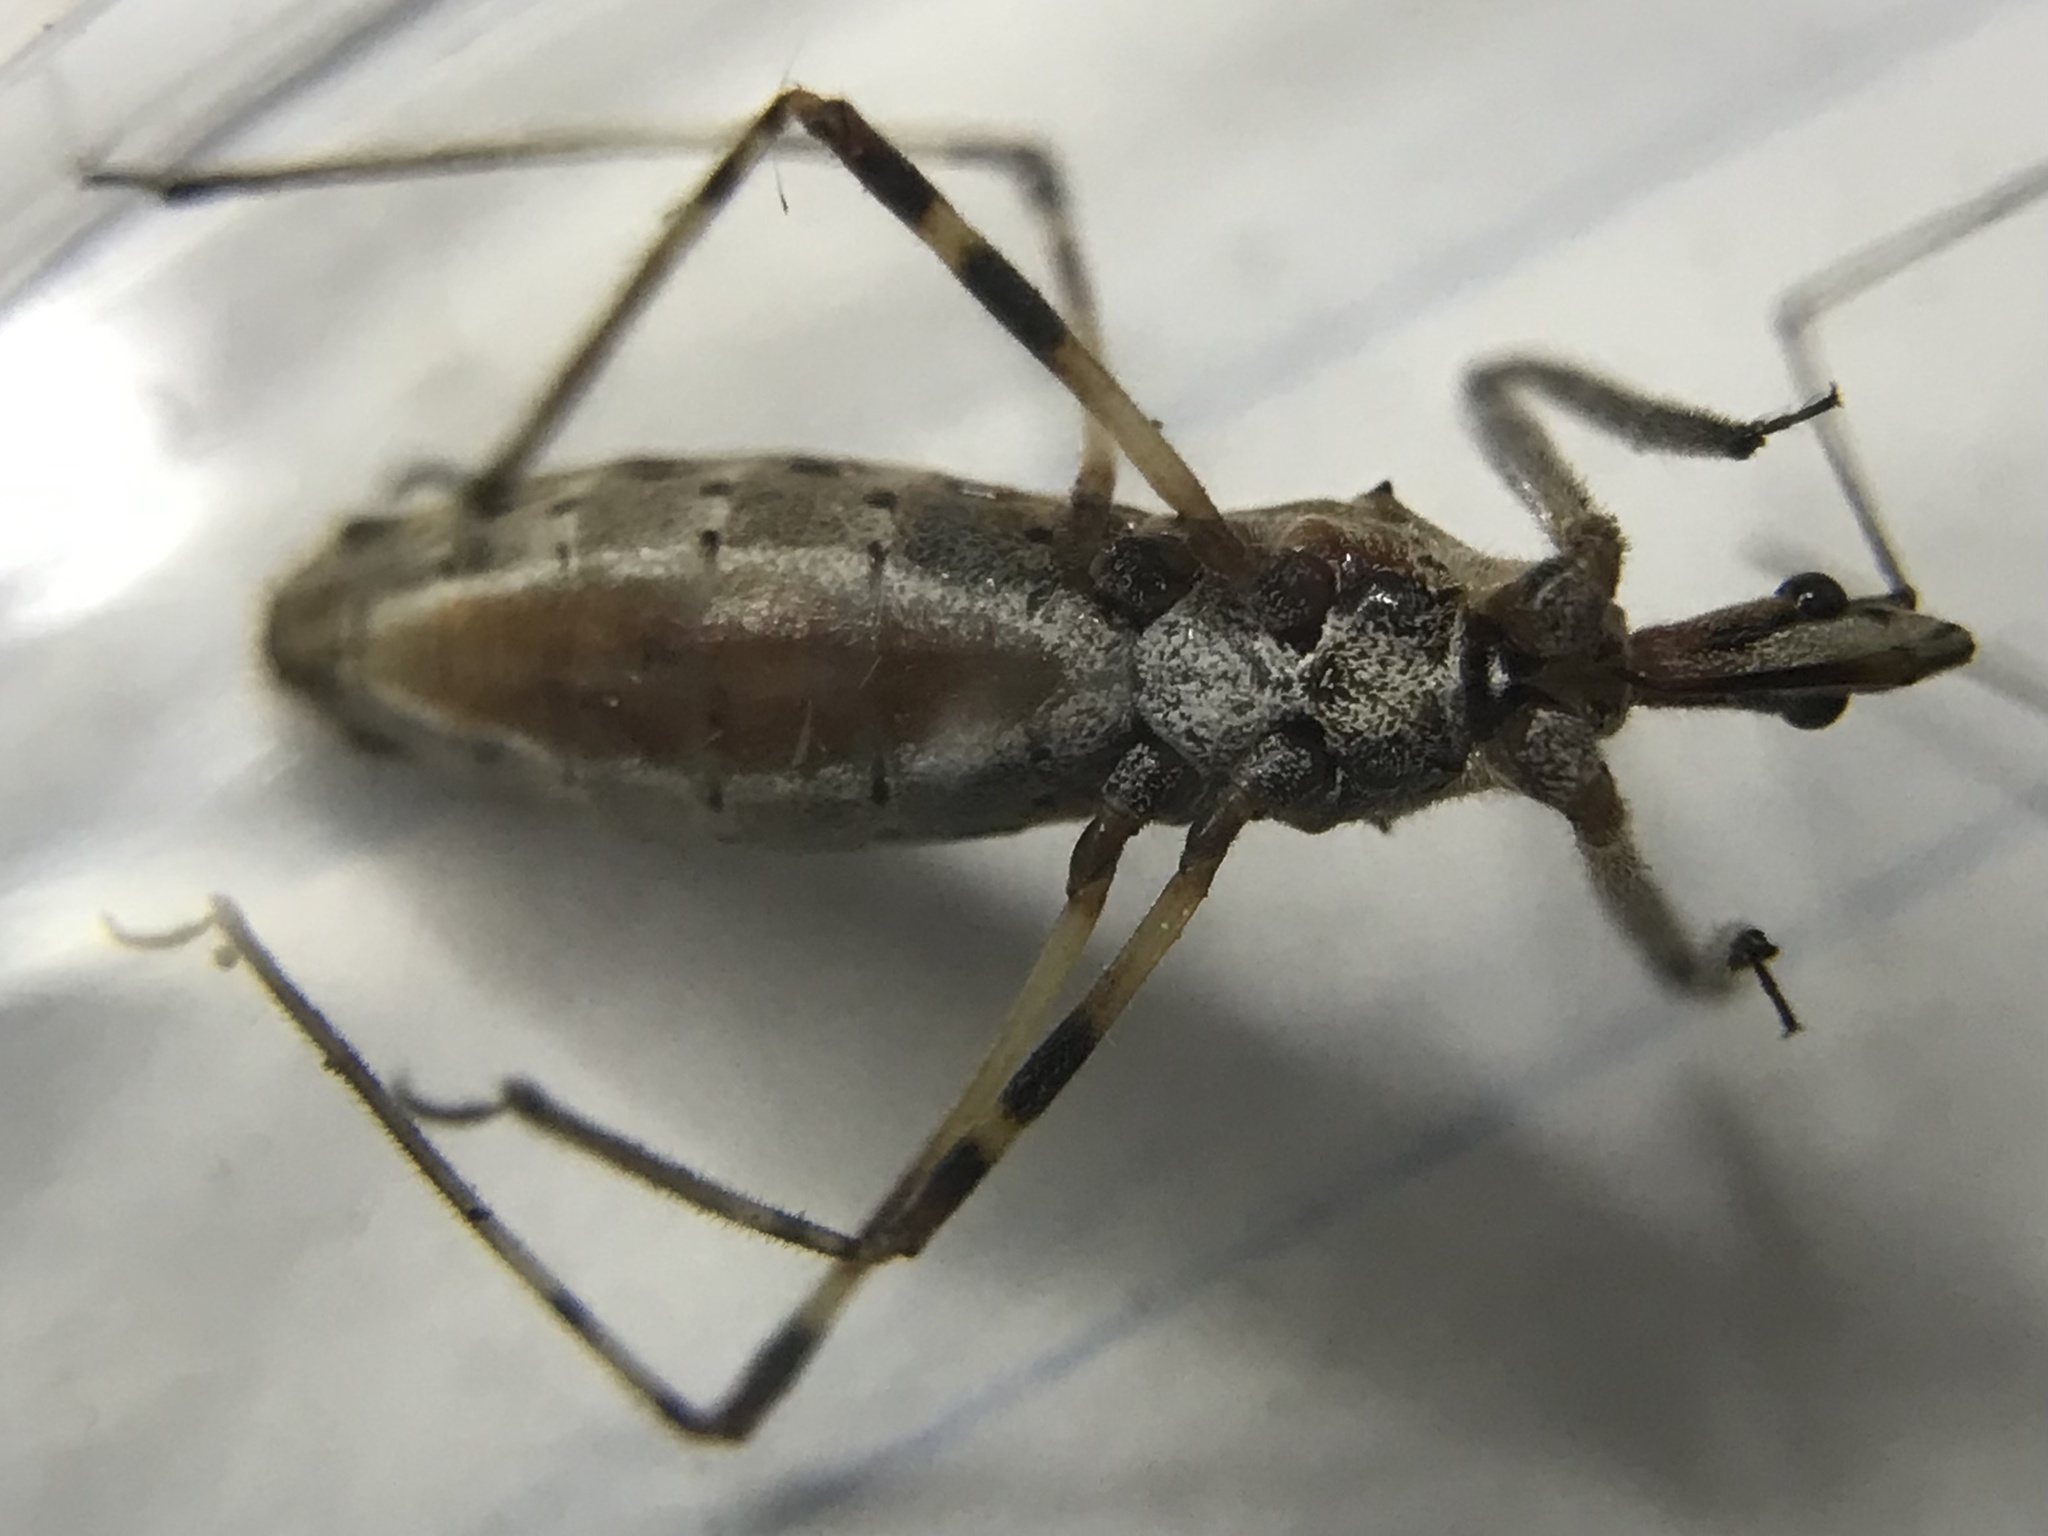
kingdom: Animalia
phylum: Arthropoda
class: Insecta
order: Hemiptera
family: Reduviidae
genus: Zelus
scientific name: Zelus tetracanthus
